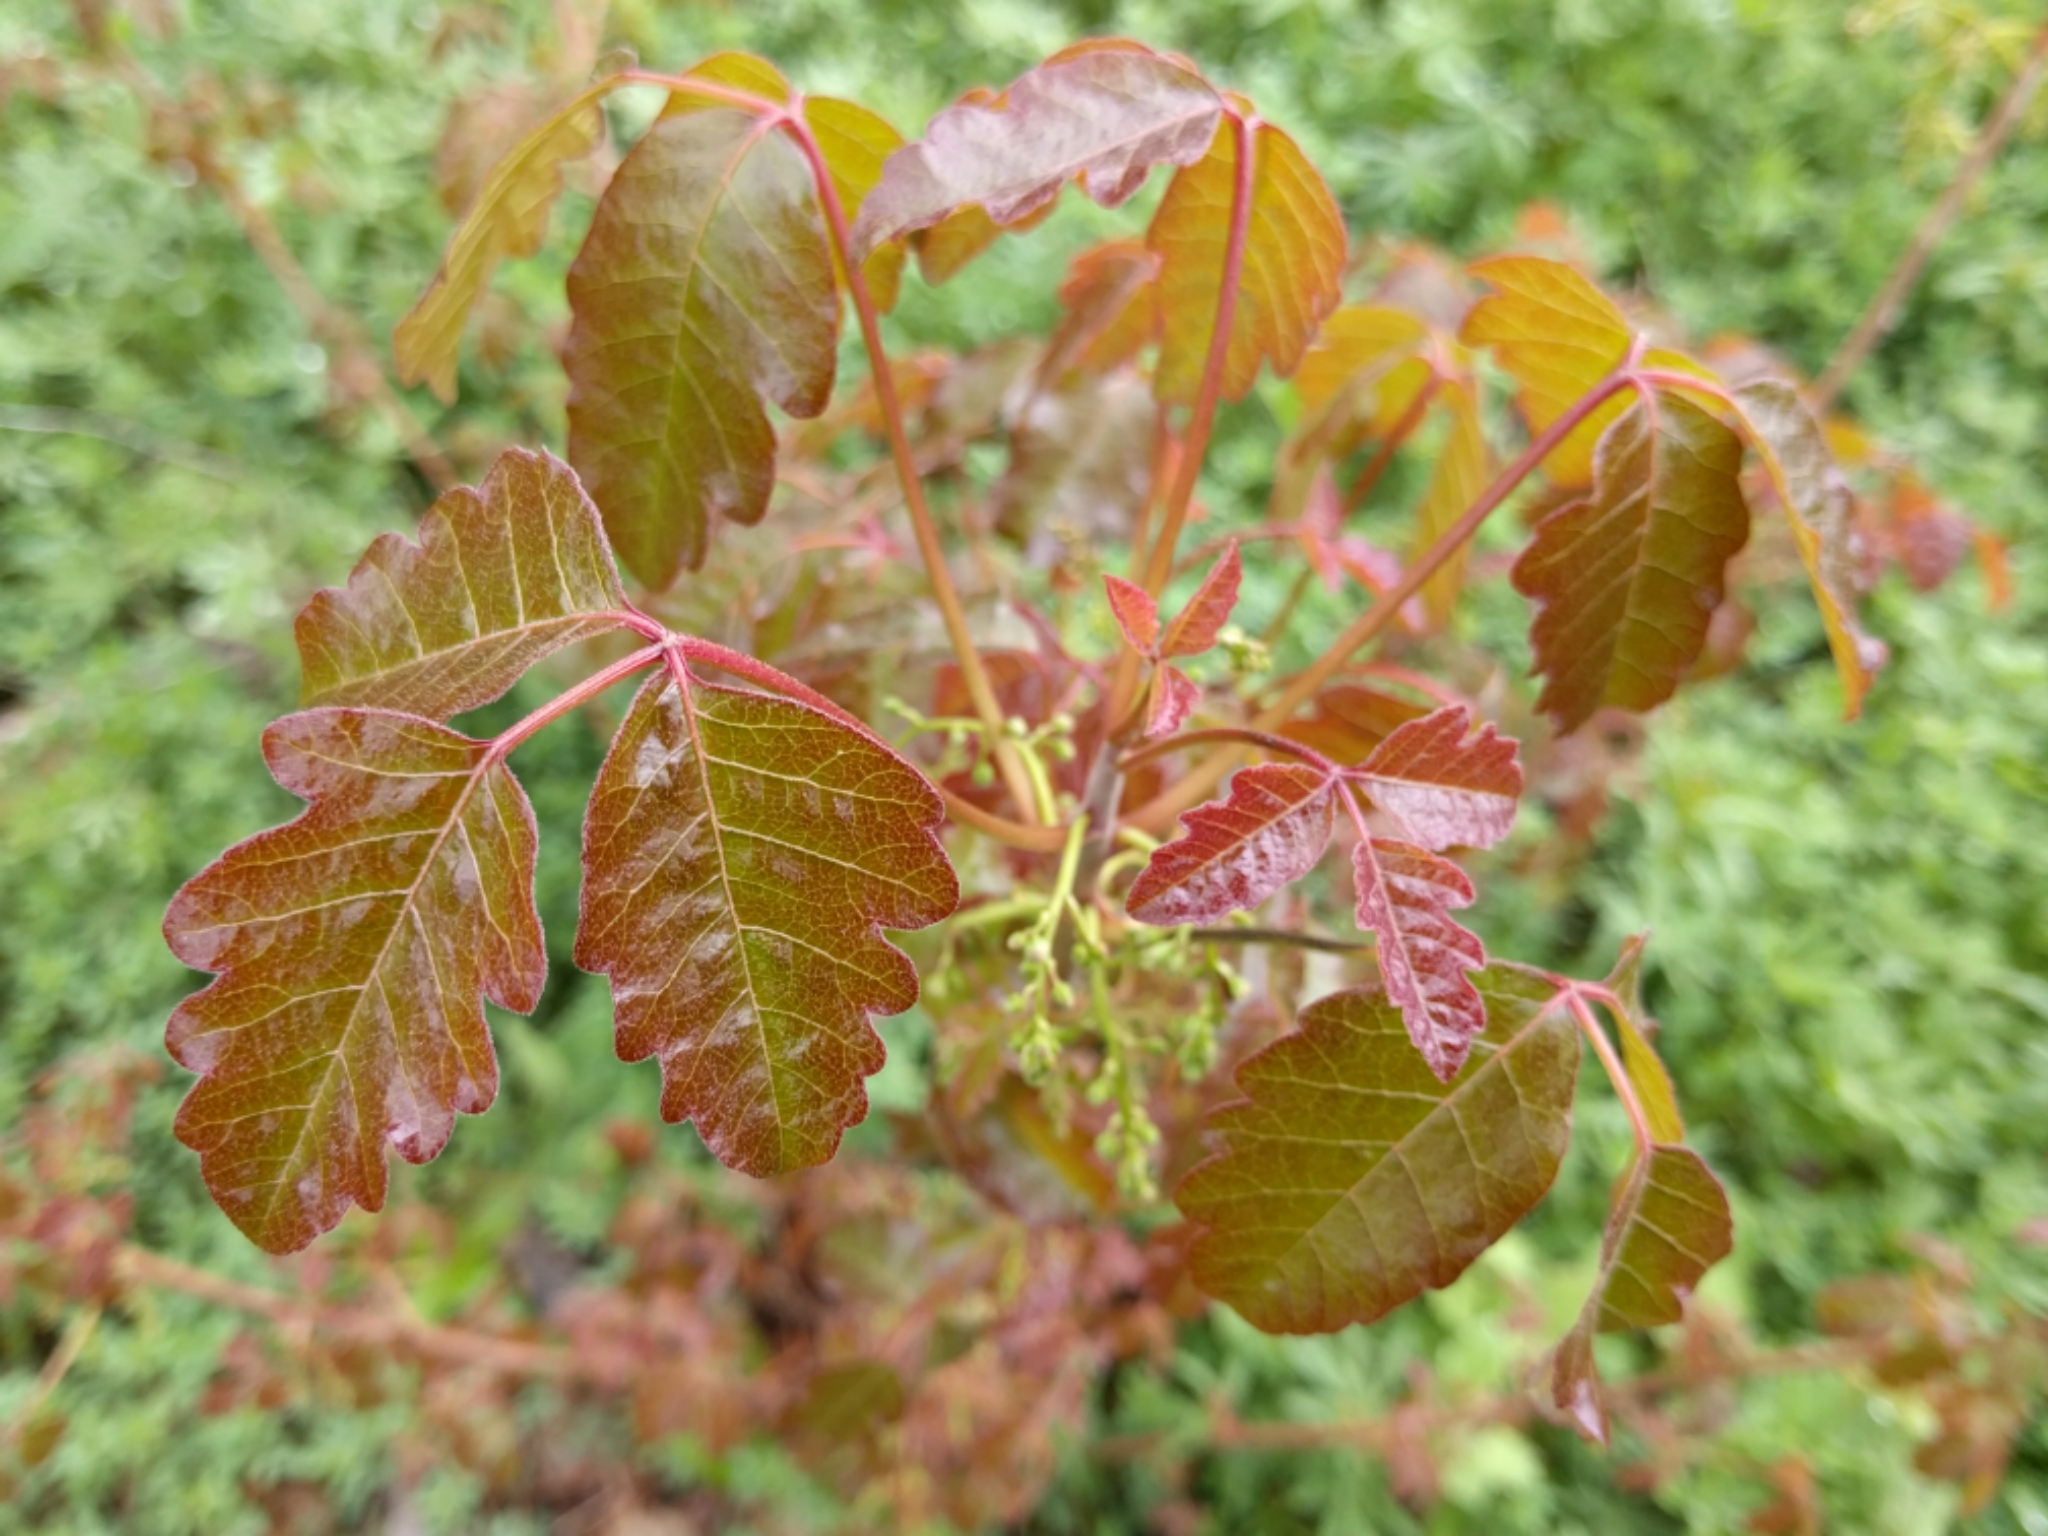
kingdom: Plantae
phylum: Tracheophyta
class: Magnoliopsida
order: Sapindales
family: Anacardiaceae
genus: Toxicodendron
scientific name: Toxicodendron diversilobum
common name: Pacific poison-oak
